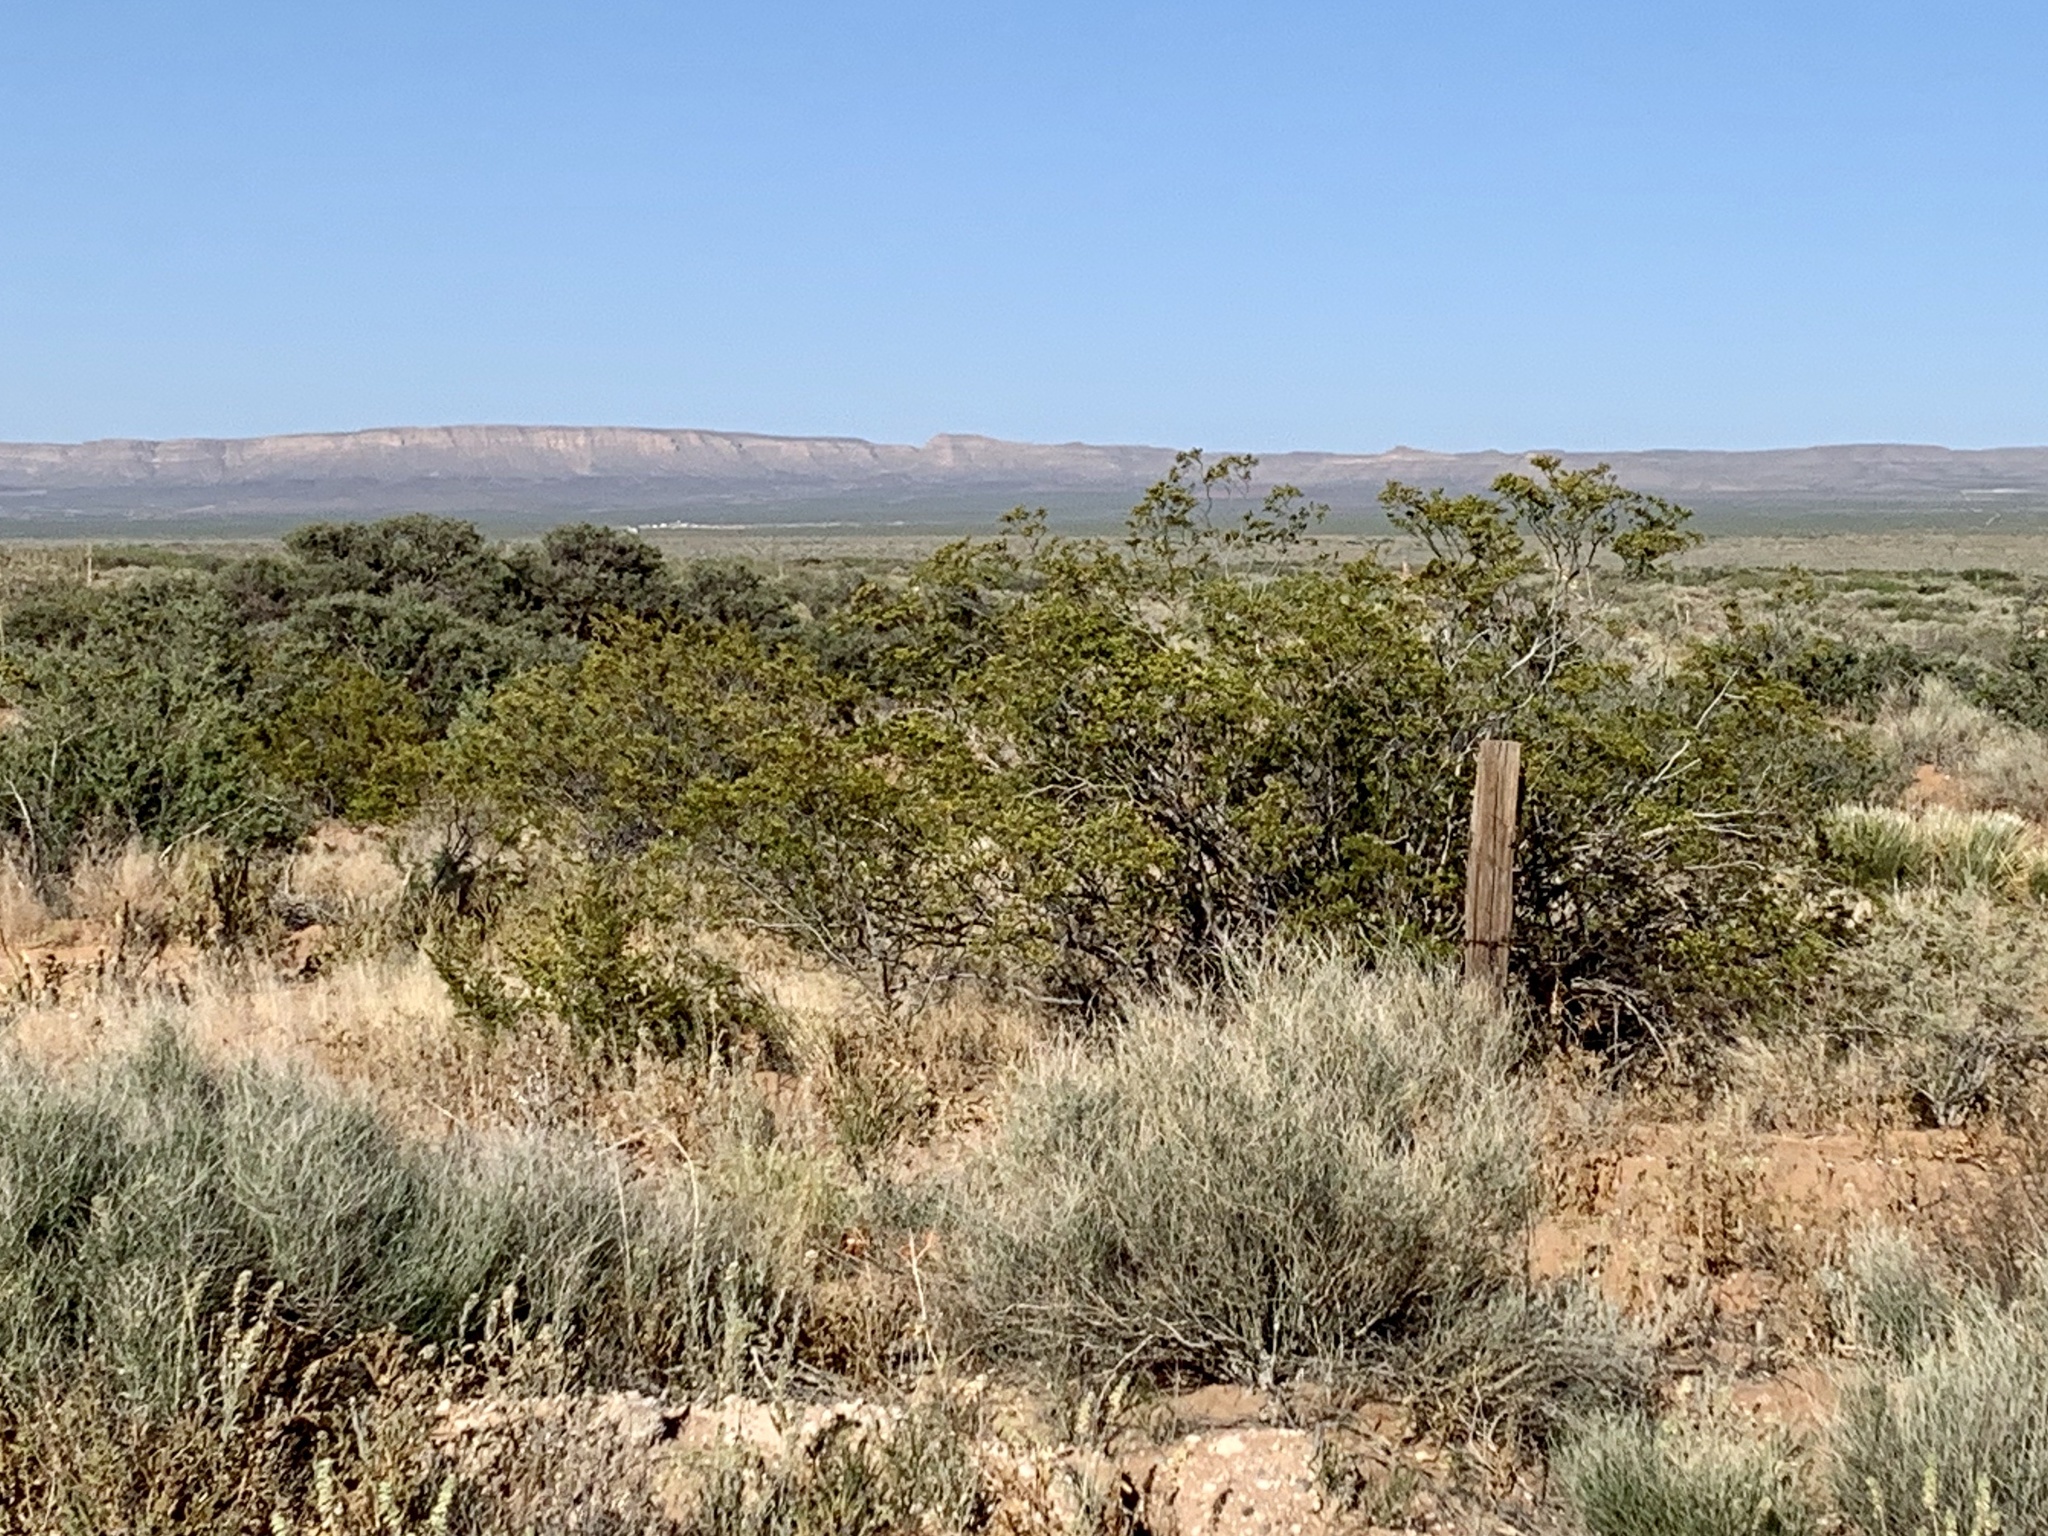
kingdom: Plantae
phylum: Tracheophyta
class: Magnoliopsida
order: Zygophyllales
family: Zygophyllaceae
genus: Larrea
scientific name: Larrea tridentata
